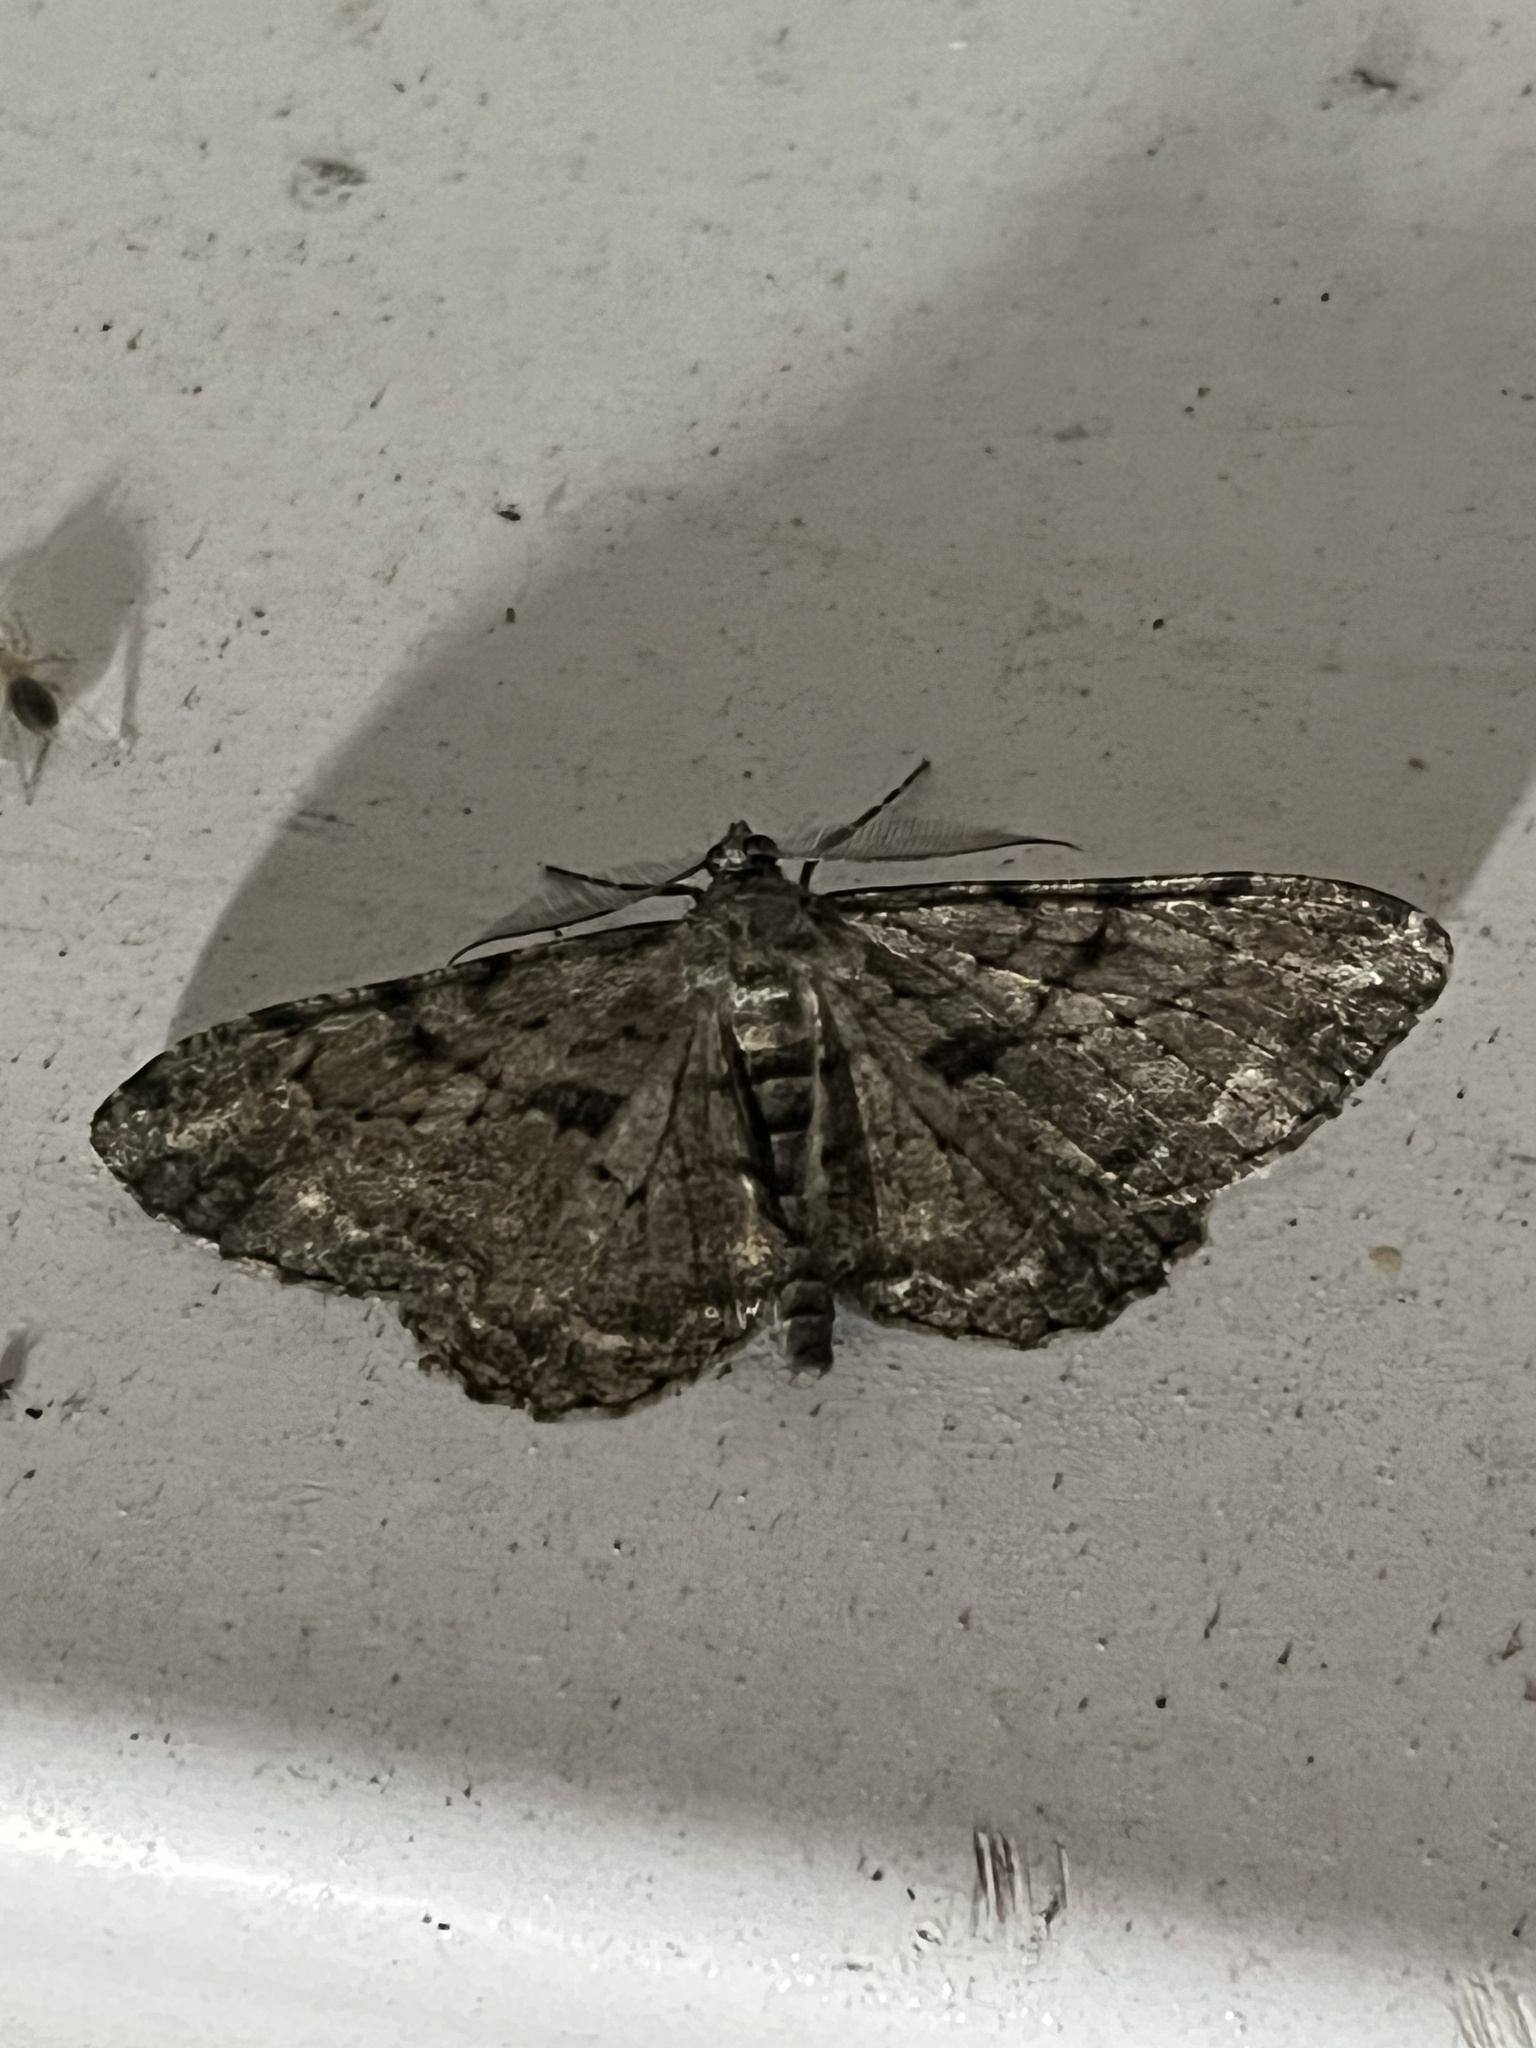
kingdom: Animalia
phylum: Arthropoda
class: Insecta
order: Lepidoptera
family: Geometridae
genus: Peribatodes
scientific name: Peribatodes rhomboidaria
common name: Willow beauty
